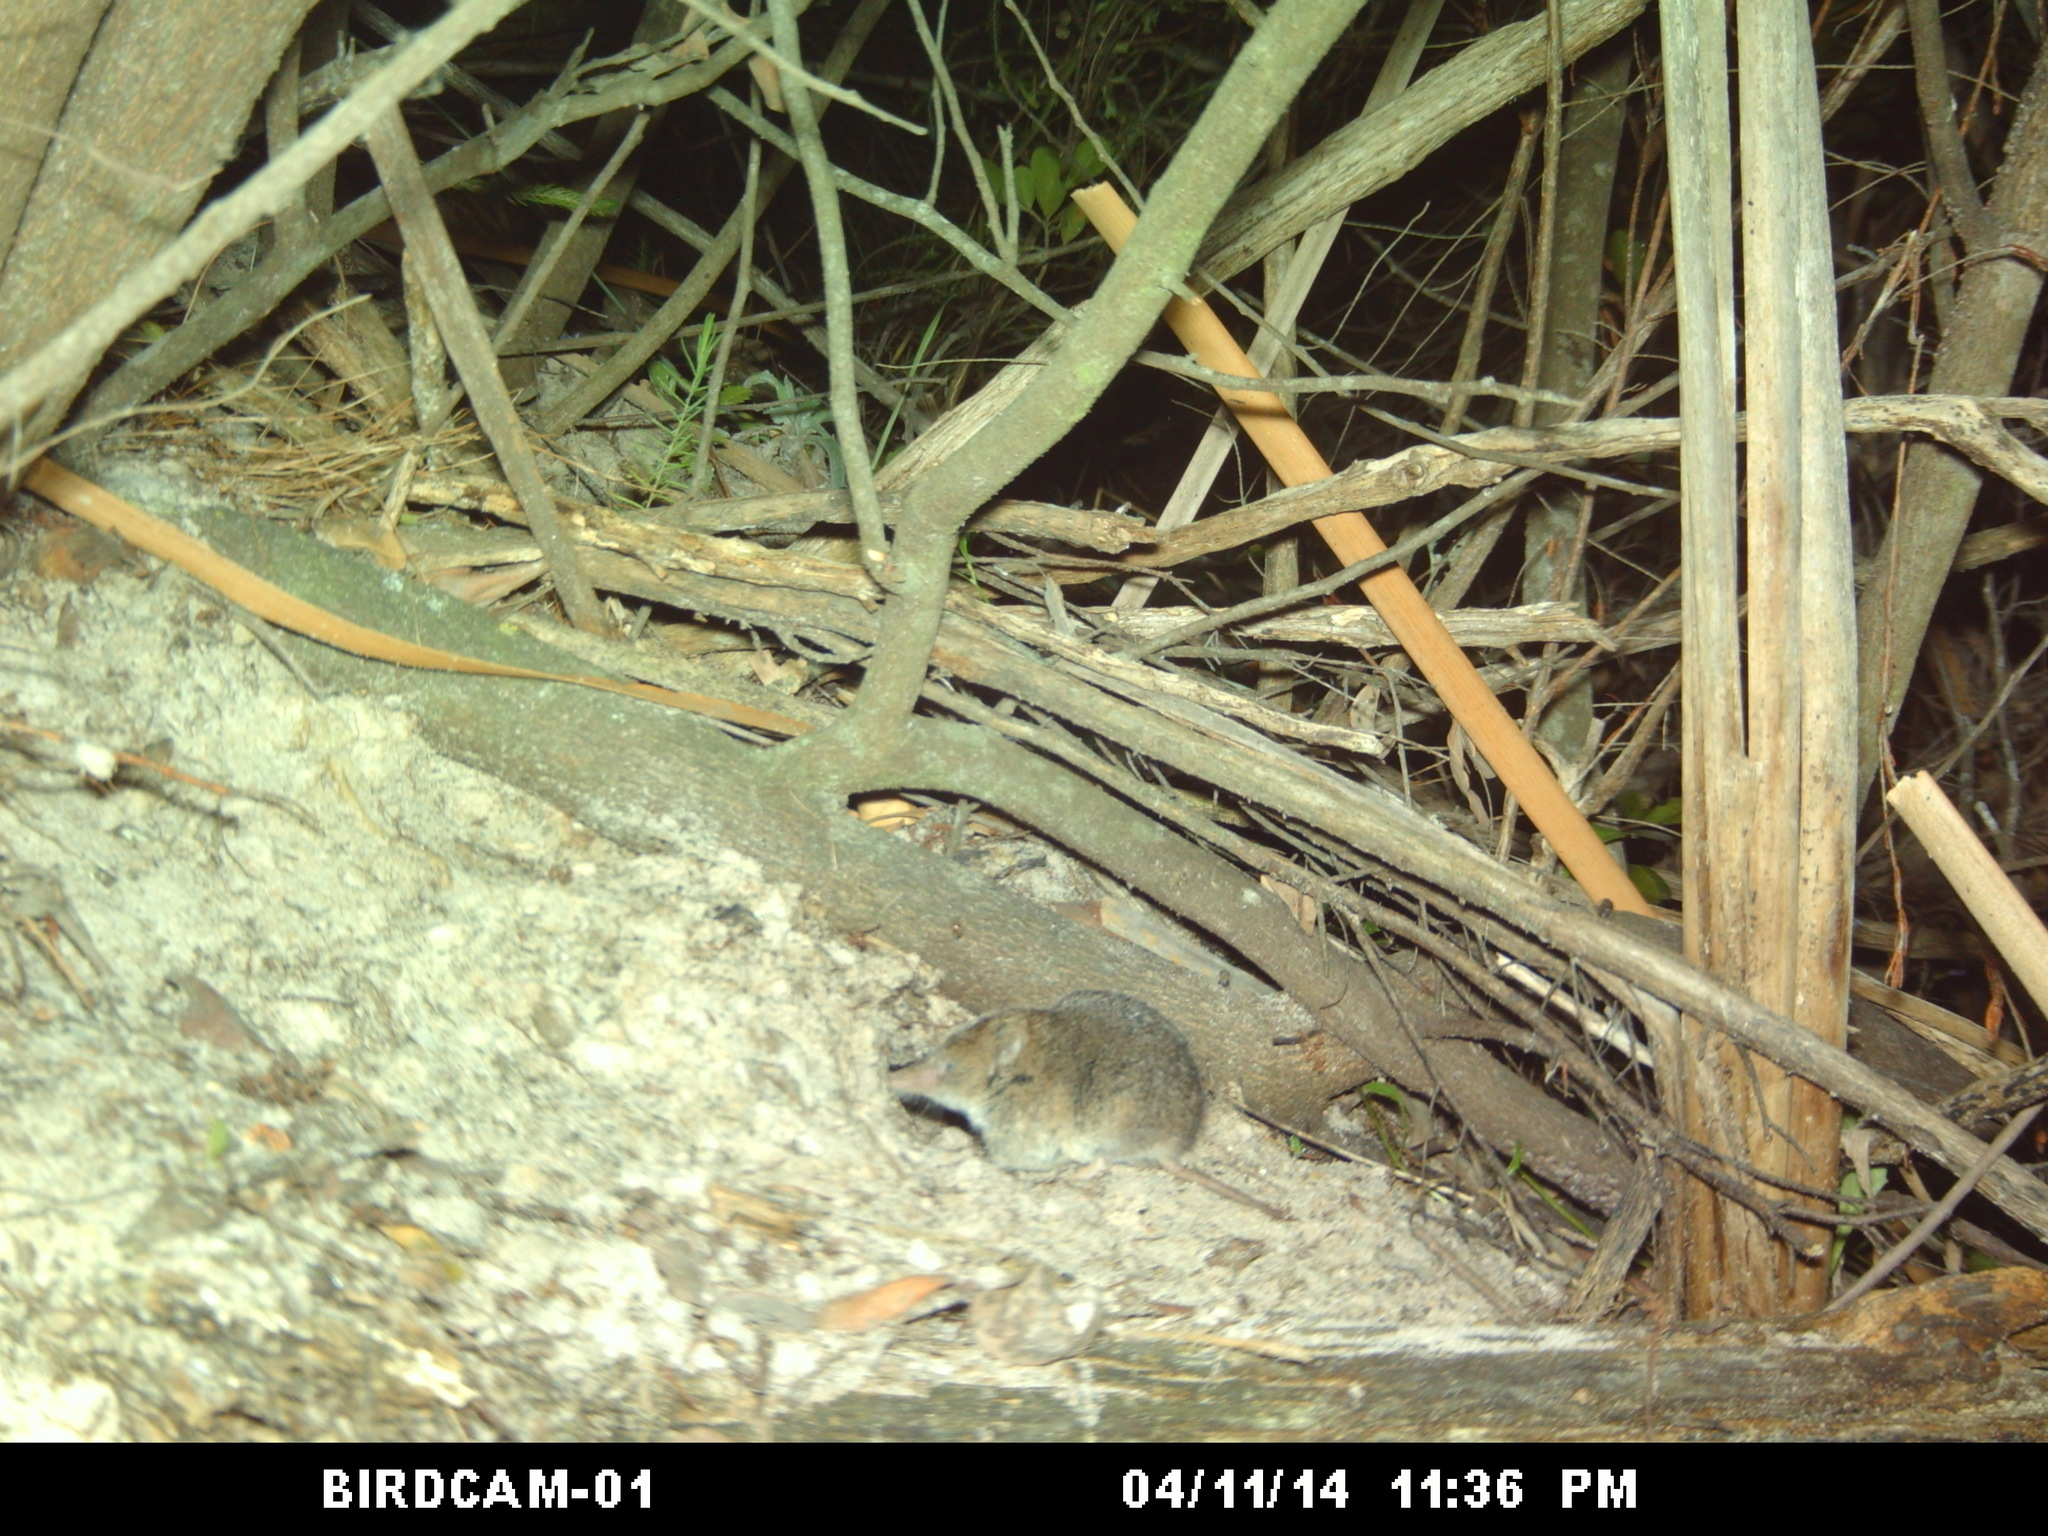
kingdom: Animalia
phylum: Chordata
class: Mammalia
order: Soricomorpha
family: Soricidae
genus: Myosorex
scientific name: Myosorex varius
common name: Forest shrew
